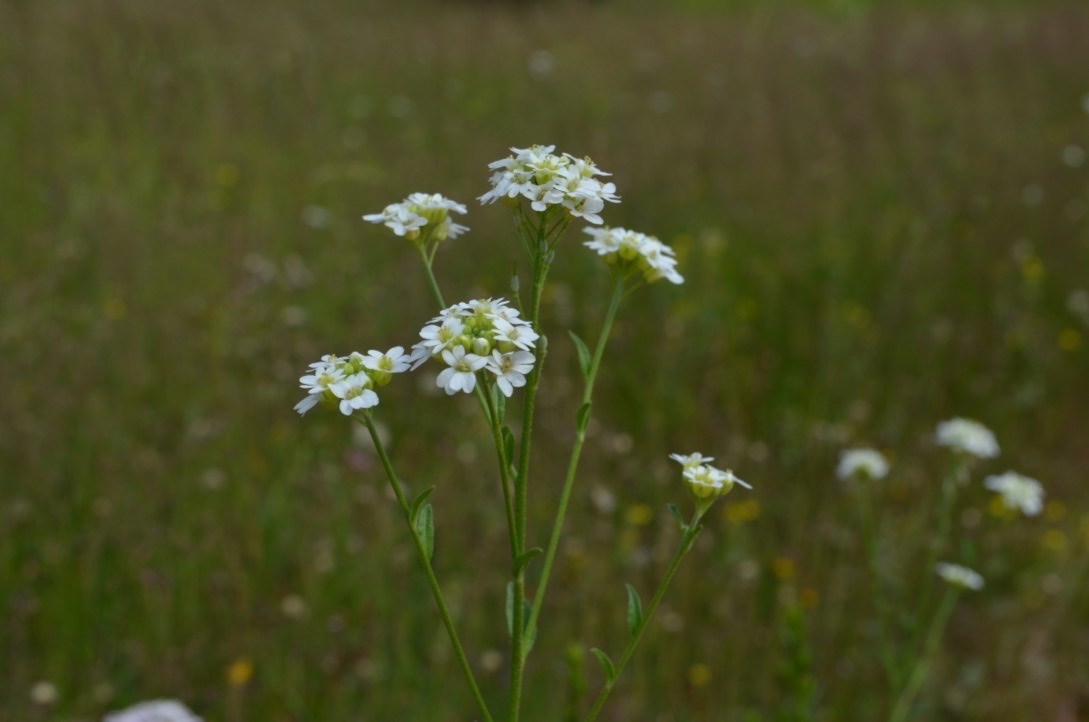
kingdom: Plantae
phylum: Tracheophyta
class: Magnoliopsida
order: Brassicales
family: Brassicaceae
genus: Berteroa
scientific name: Berteroa incana
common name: Hoary alison
